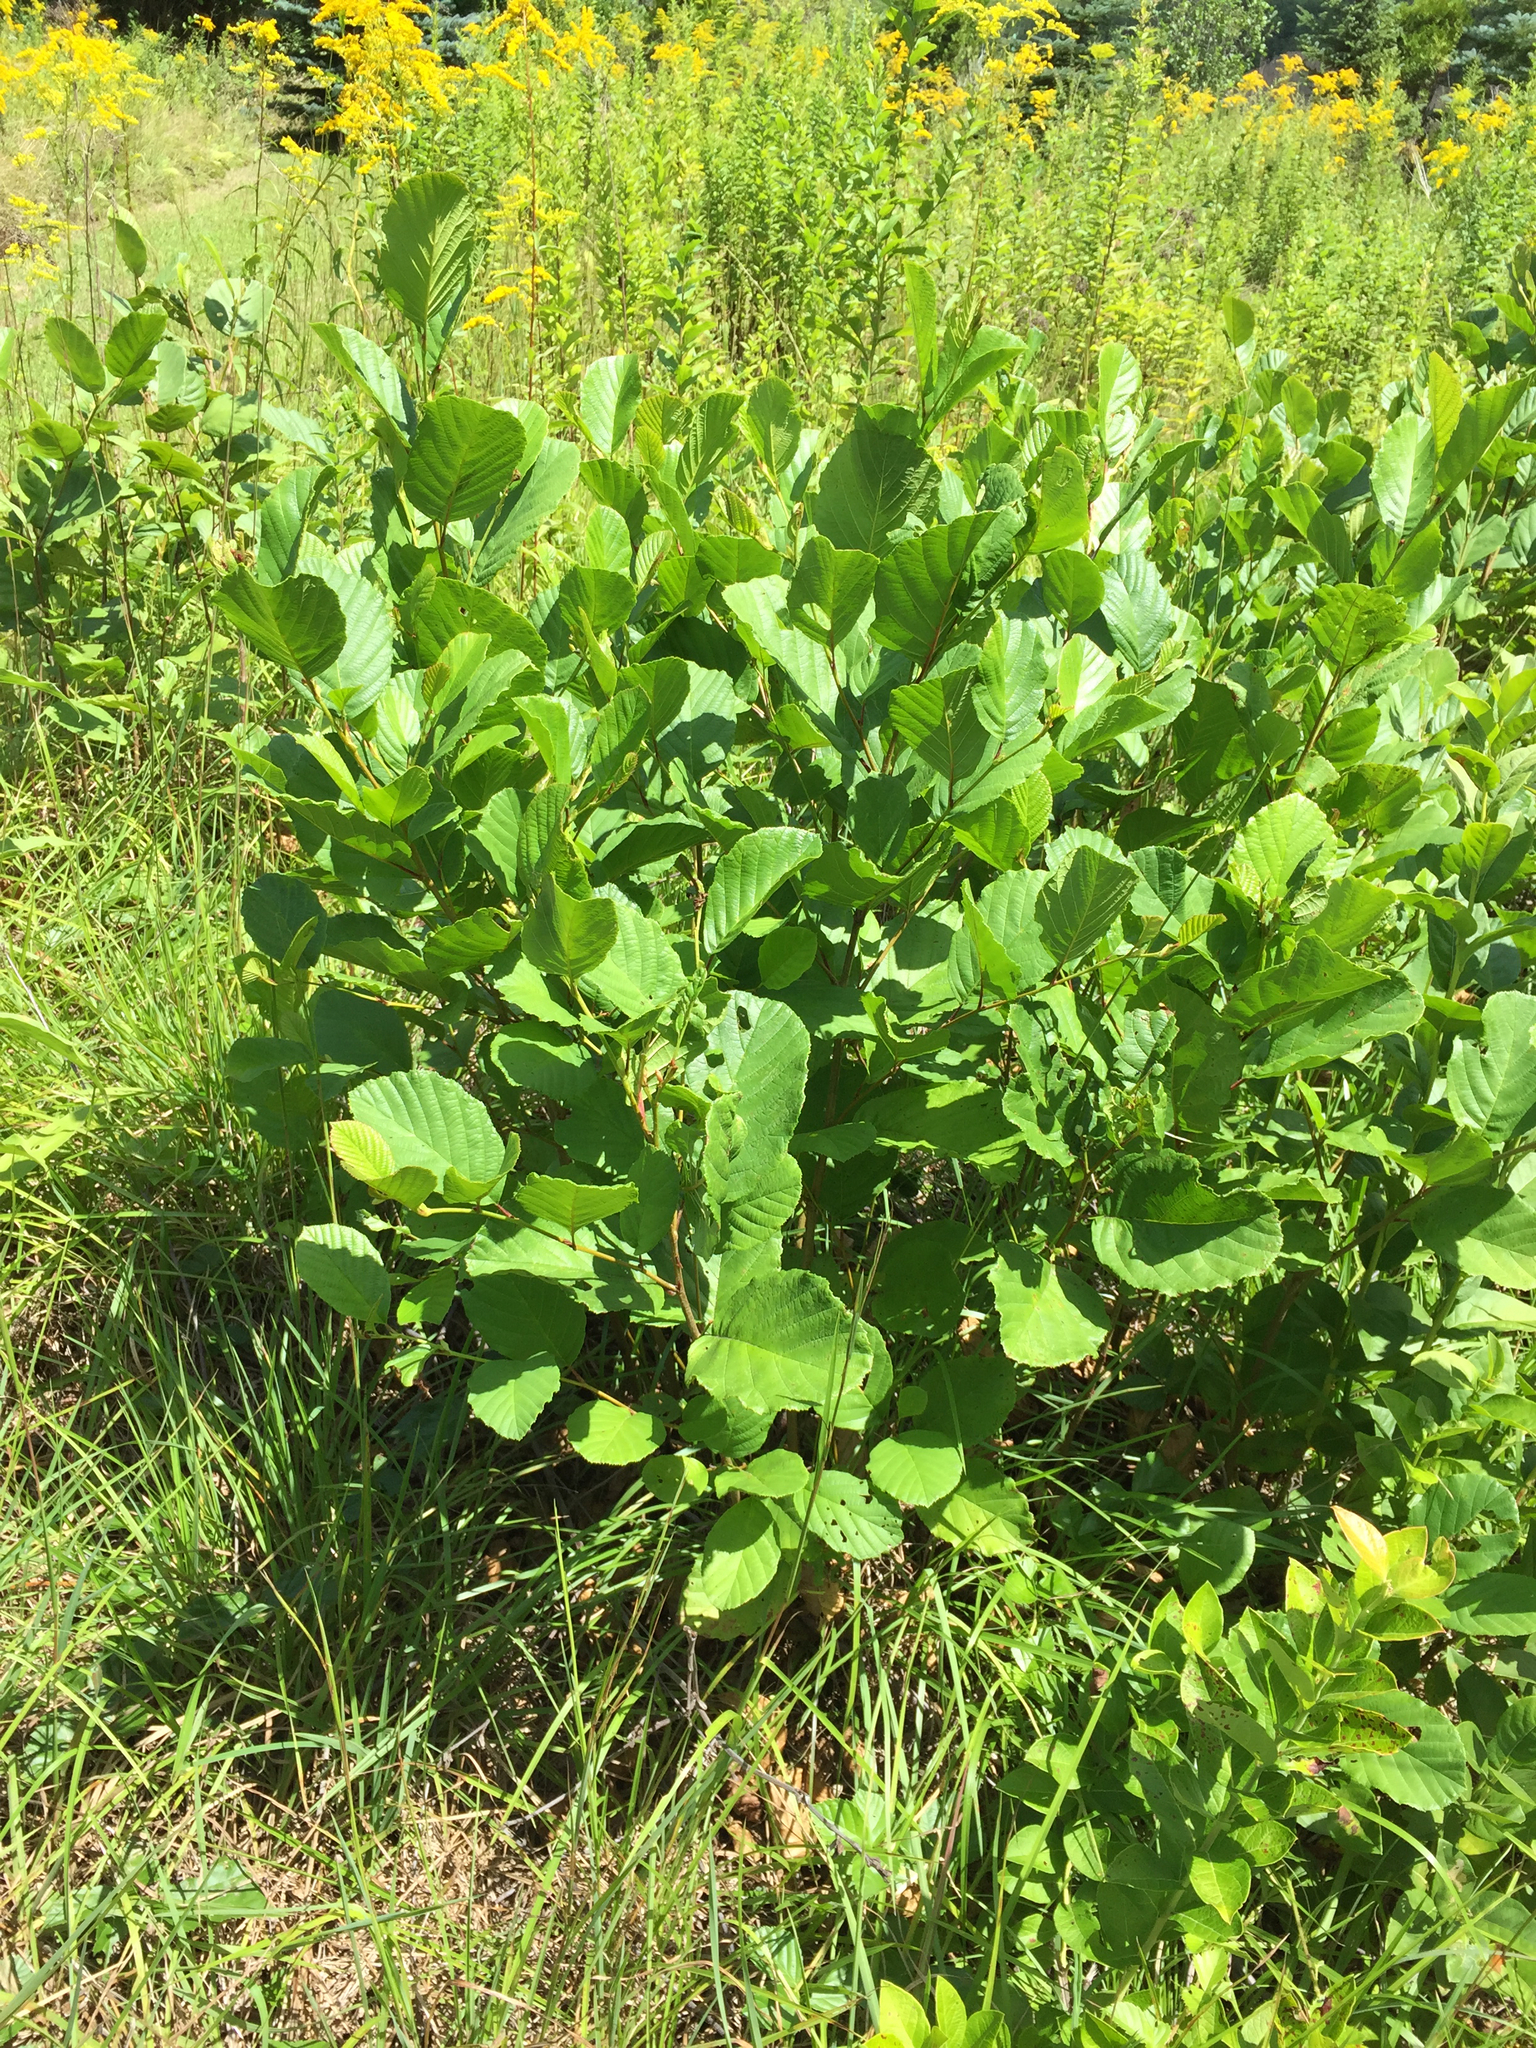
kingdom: Plantae
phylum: Tracheophyta
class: Magnoliopsida
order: Saxifragales
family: Hamamelidaceae
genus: Hamamelis
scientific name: Hamamelis virginiana
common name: Witch-hazel
